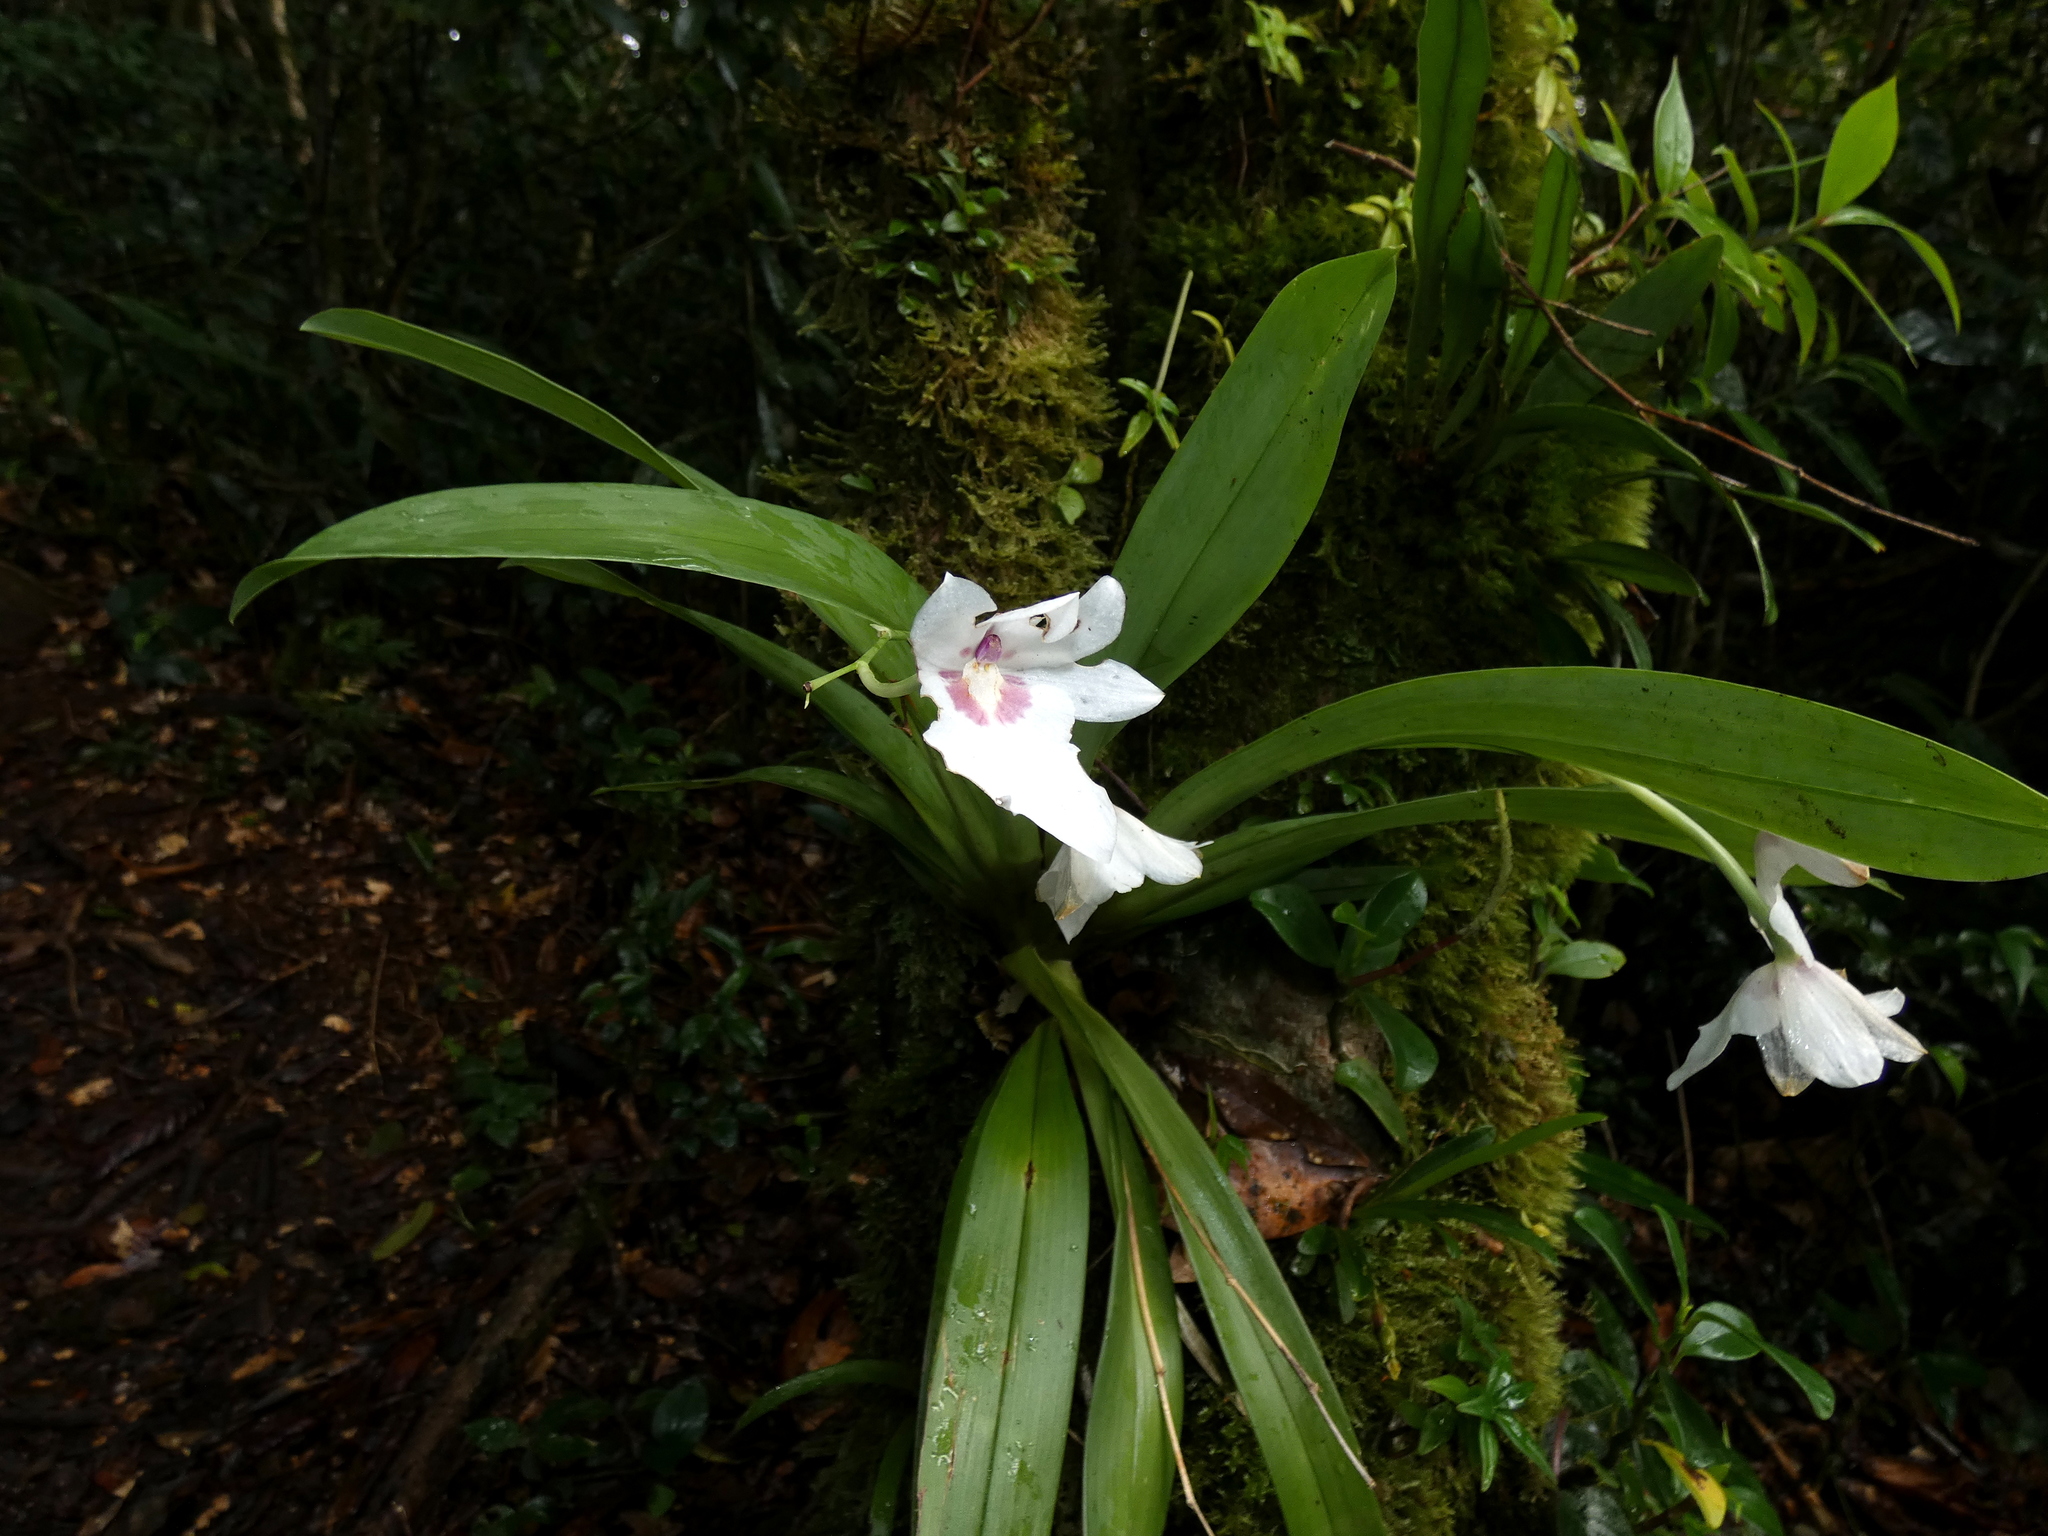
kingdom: Plantae
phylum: Tracheophyta
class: Liliopsida
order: Asparagales
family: Orchidaceae
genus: Miltoniopsis
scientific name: Miltoniopsis warszewiczii
